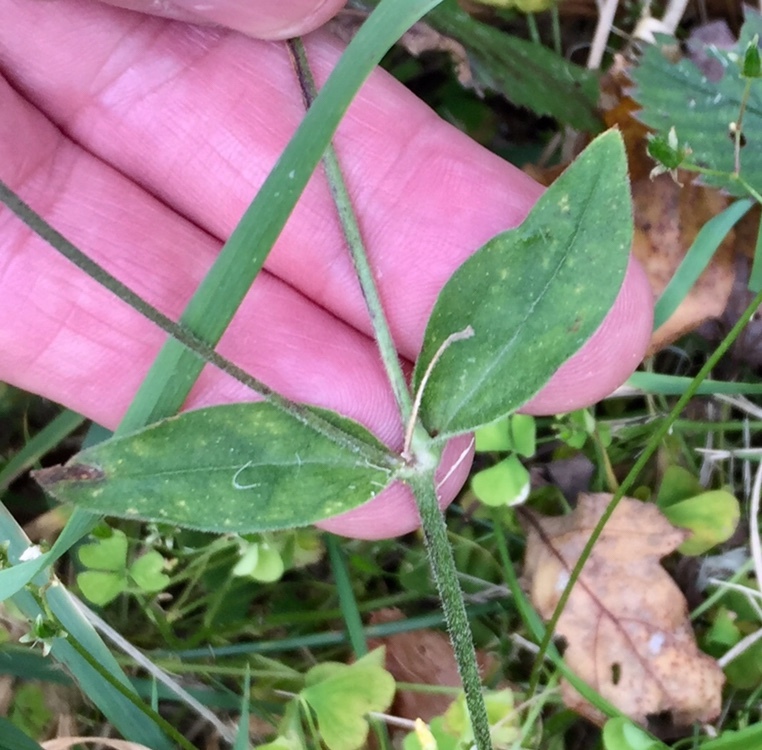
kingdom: Plantae
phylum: Tracheophyta
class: Magnoliopsida
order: Caryophyllales
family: Caryophyllaceae
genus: Silene
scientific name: Silene latifolia
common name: White campion
